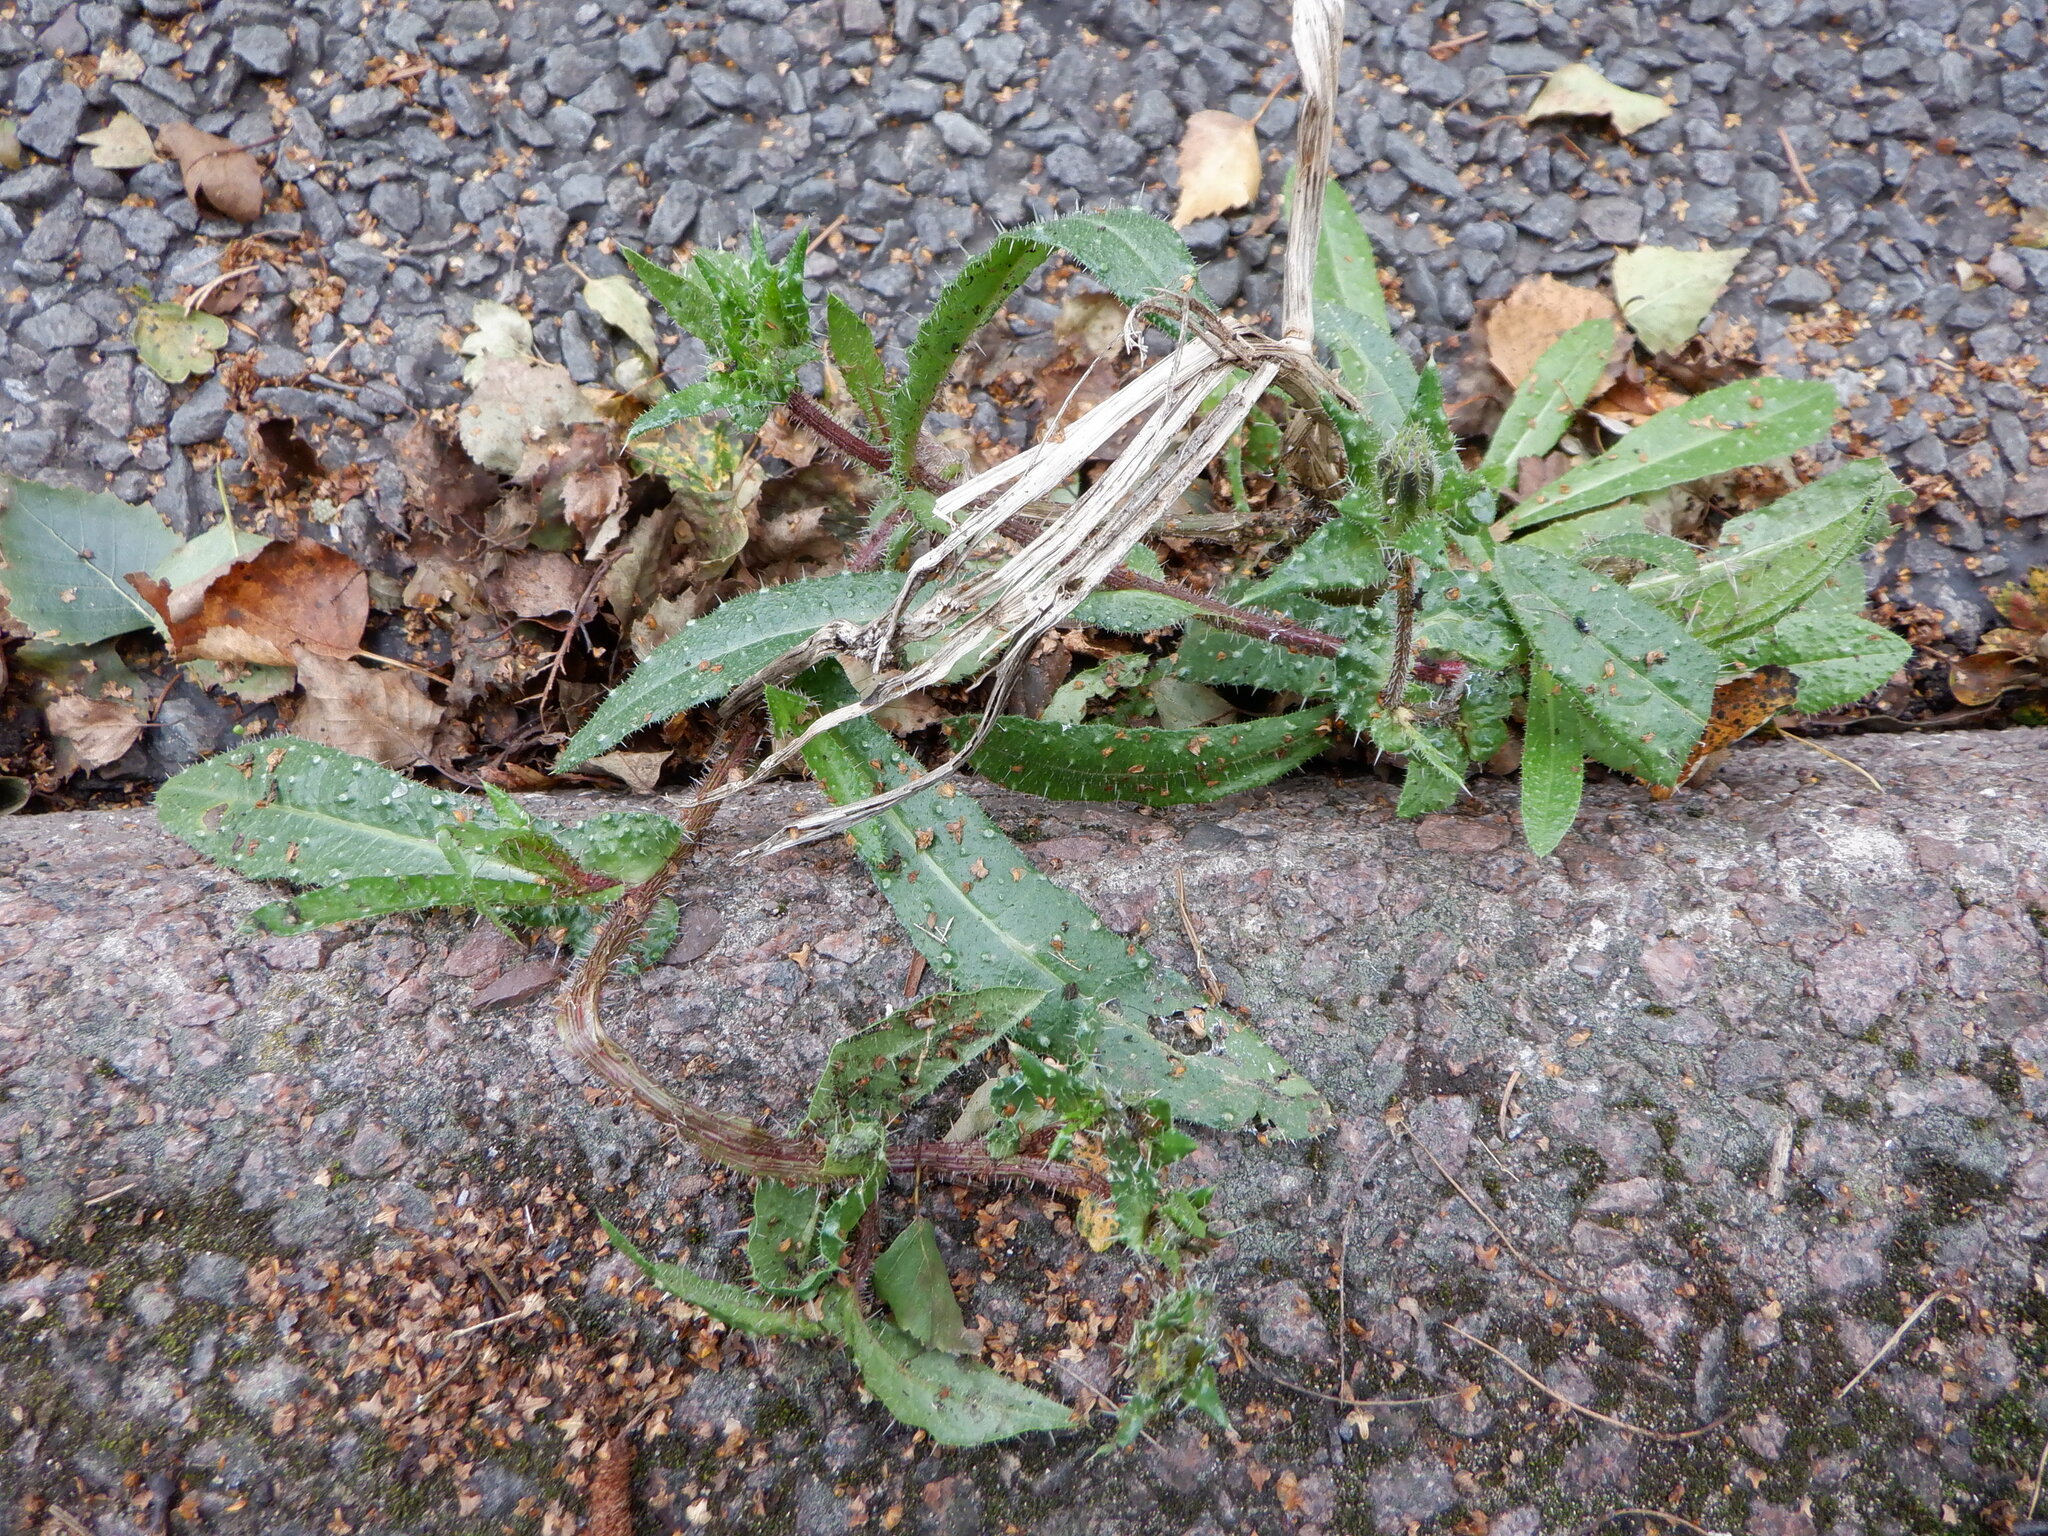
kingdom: Plantae
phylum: Tracheophyta
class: Magnoliopsida
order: Asterales
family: Asteraceae
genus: Helminthotheca
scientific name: Helminthotheca echioides
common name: Ox-tongue
